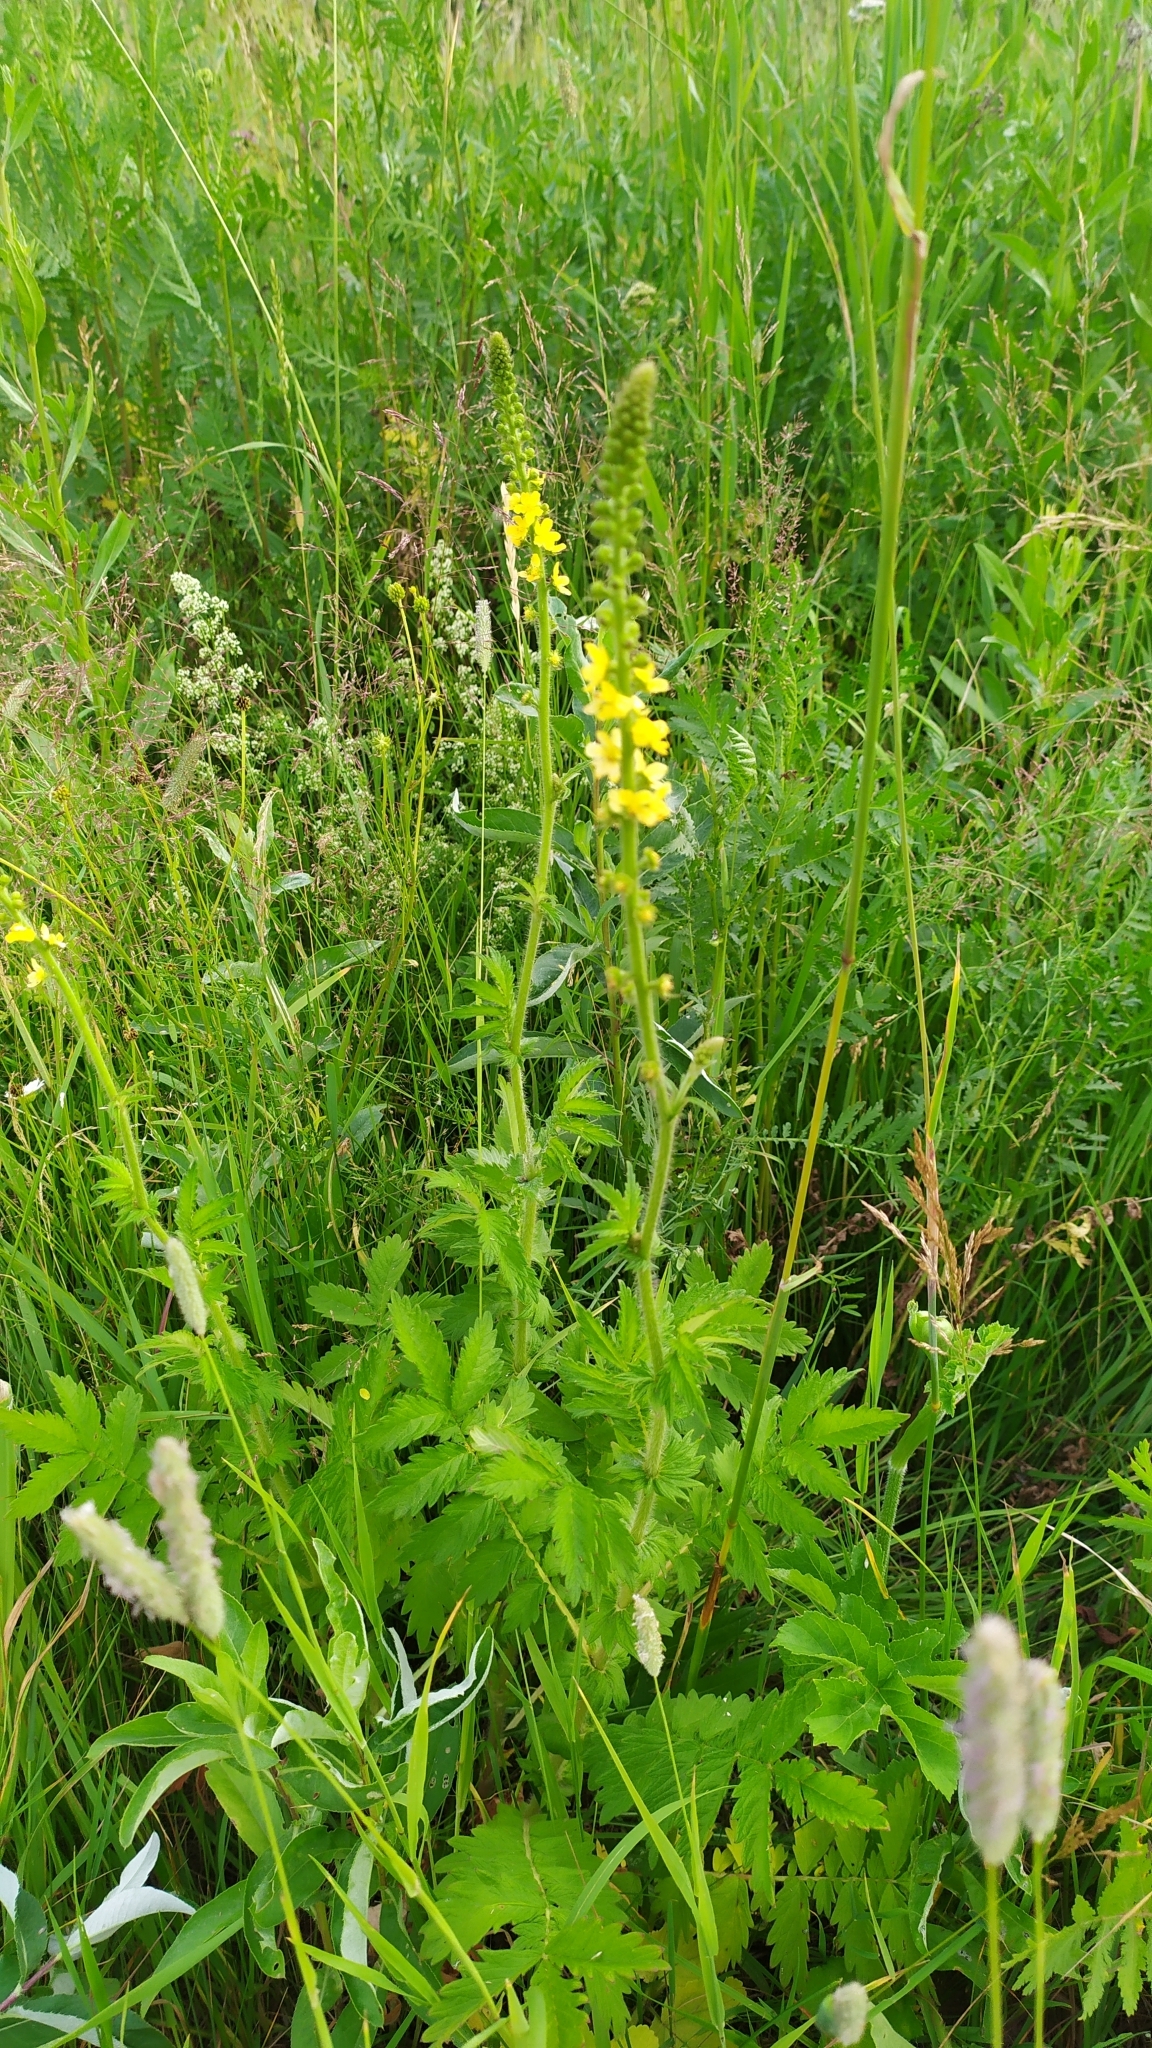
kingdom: Plantae
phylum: Tracheophyta
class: Magnoliopsida
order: Rosales
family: Rosaceae
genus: Agrimonia
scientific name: Agrimonia eupatoria
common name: Agrimony
